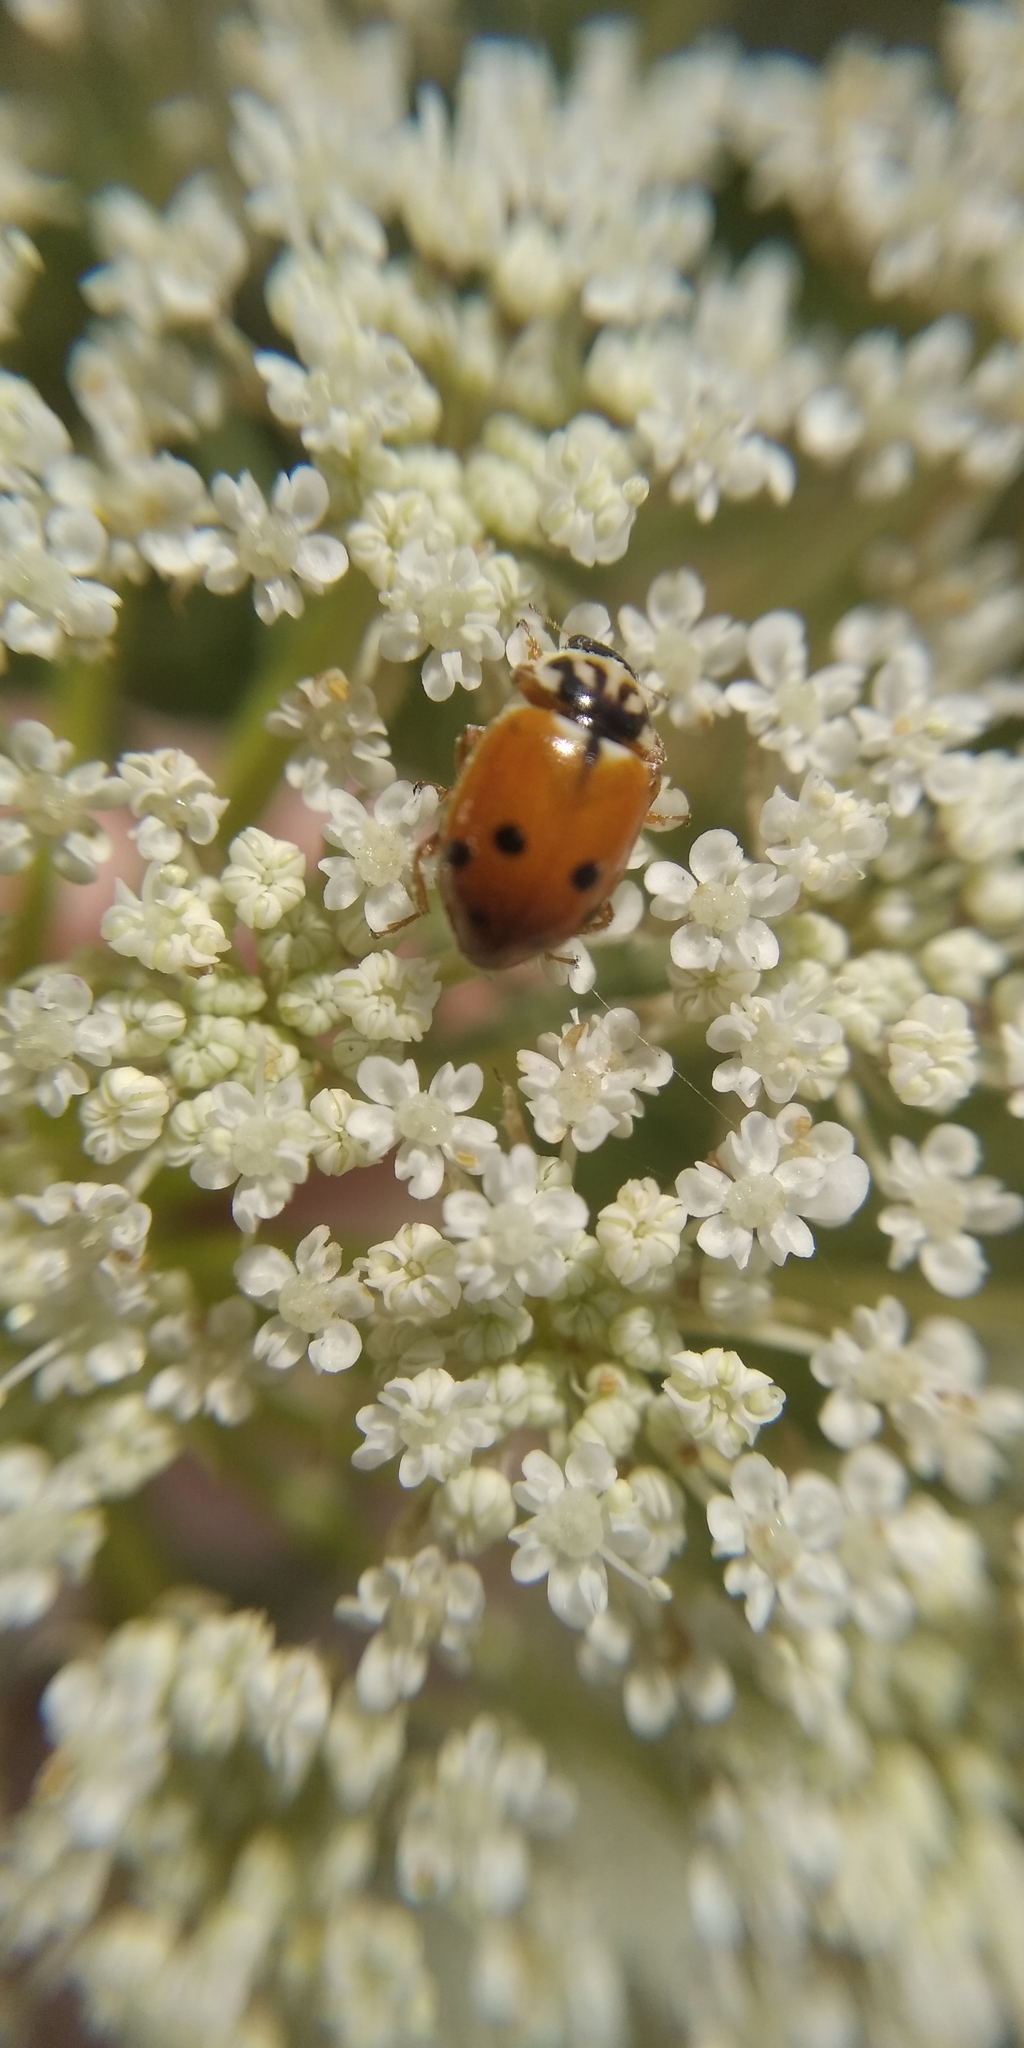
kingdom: Animalia
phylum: Arthropoda
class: Insecta
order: Coleoptera
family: Coccinellidae
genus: Hippodamia
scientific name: Hippodamia variegata
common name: Ladybird beetle
